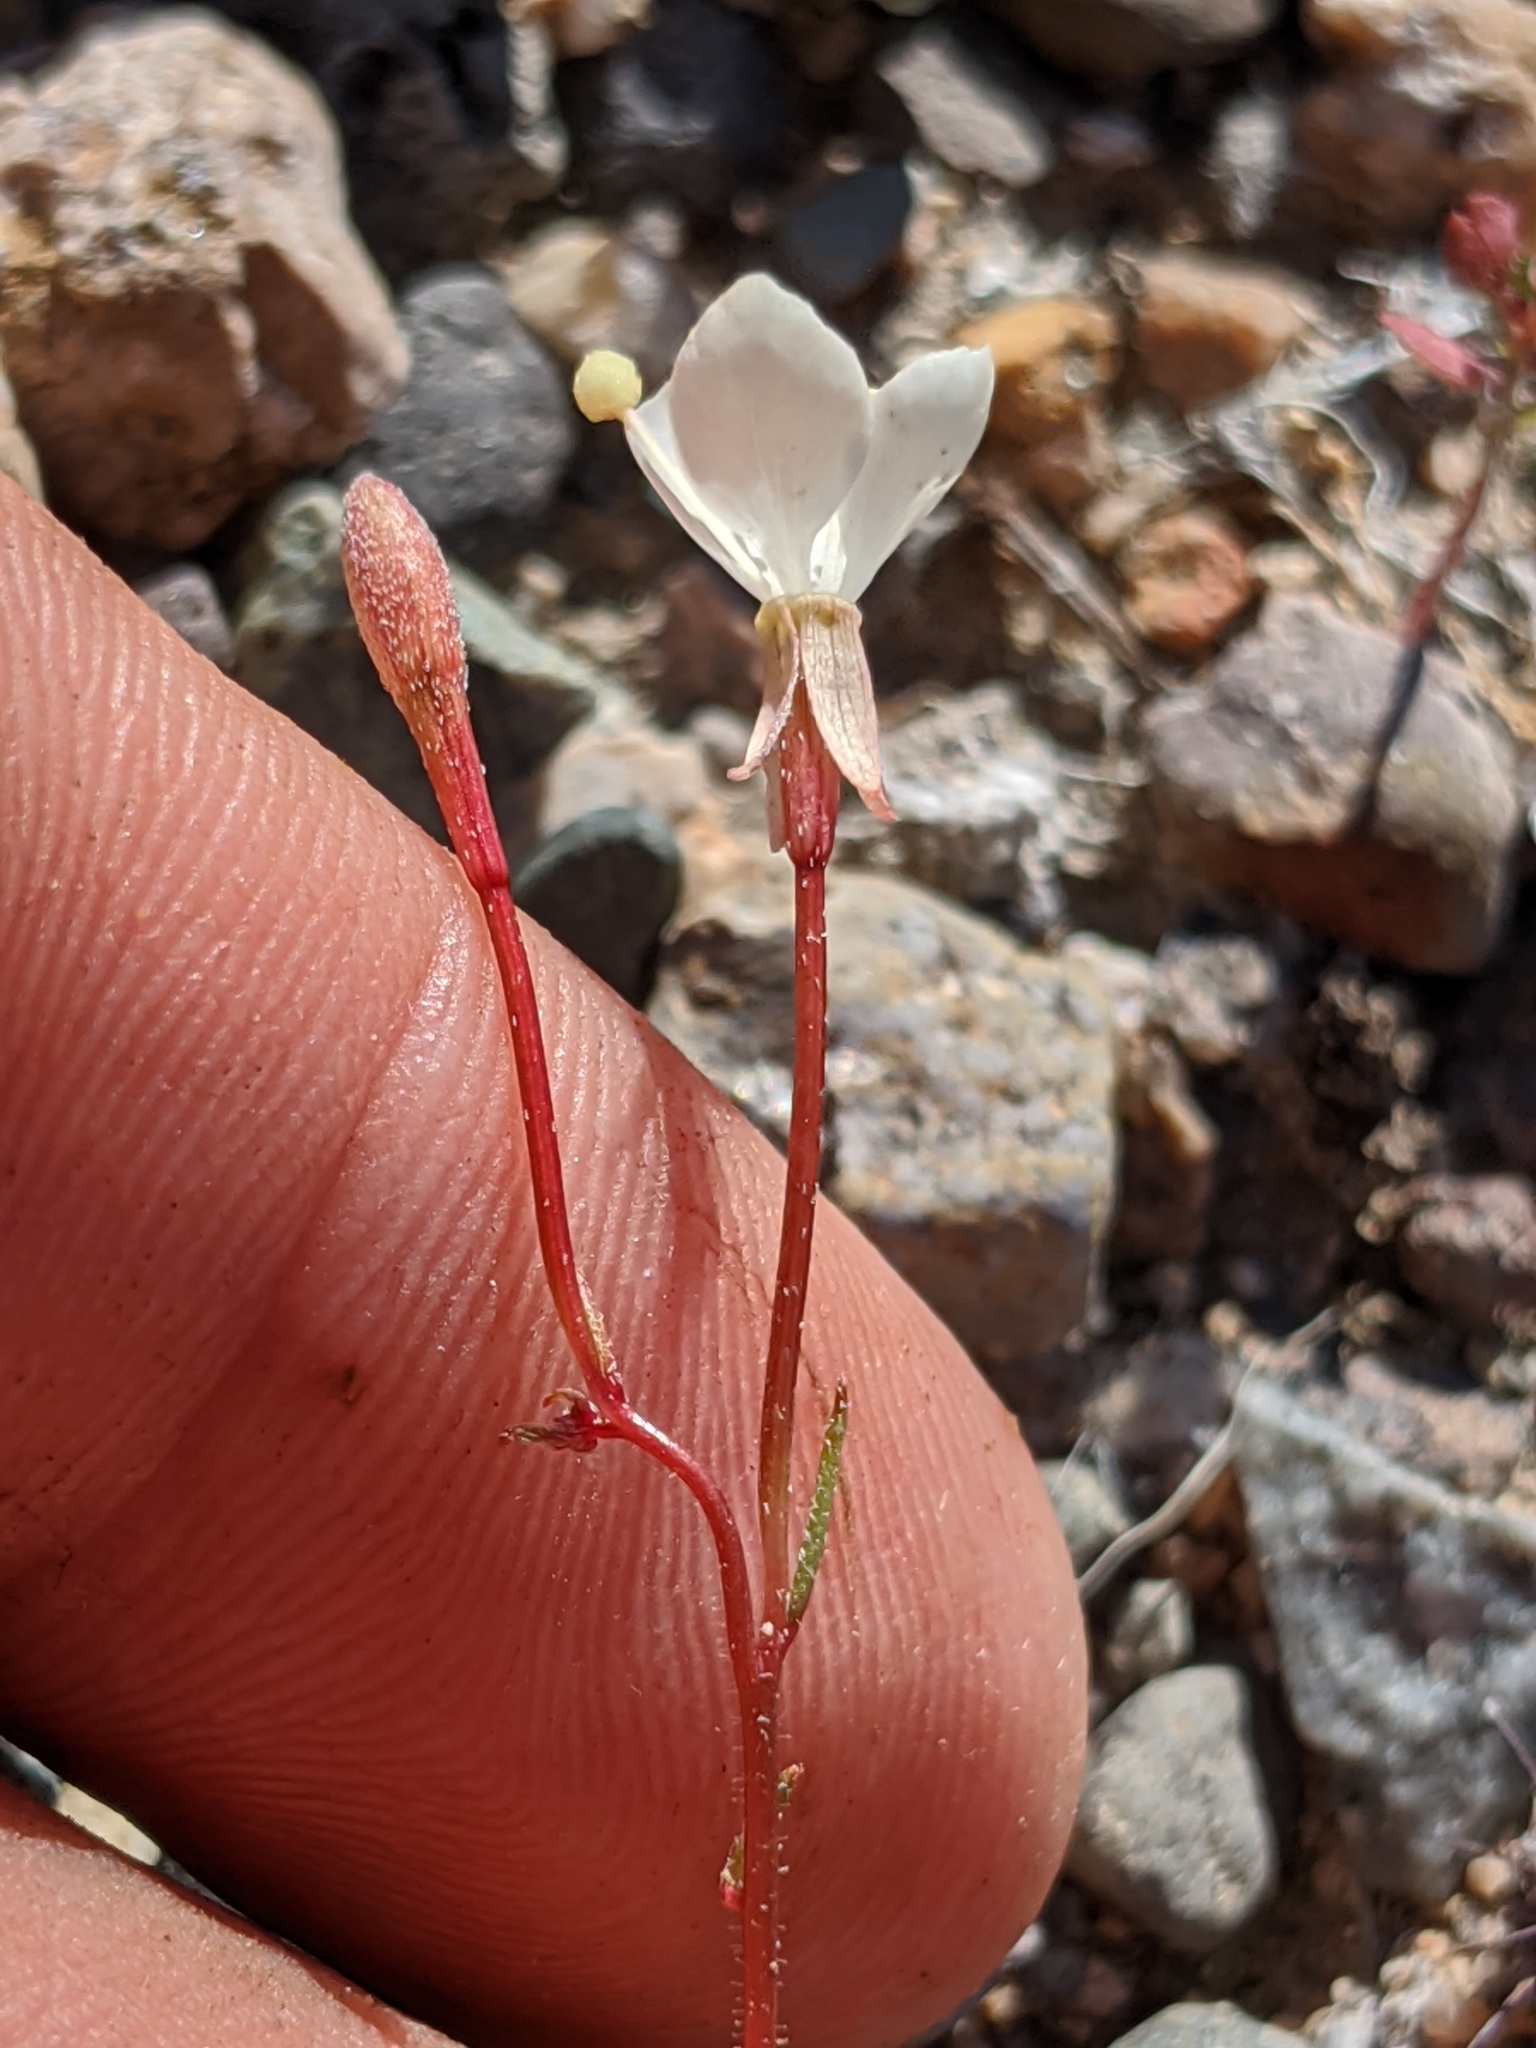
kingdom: Plantae
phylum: Tracheophyta
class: Magnoliopsida
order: Myrtales
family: Onagraceae
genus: Eremothera
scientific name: Eremothera refracta
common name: Narrowleaf suncup
